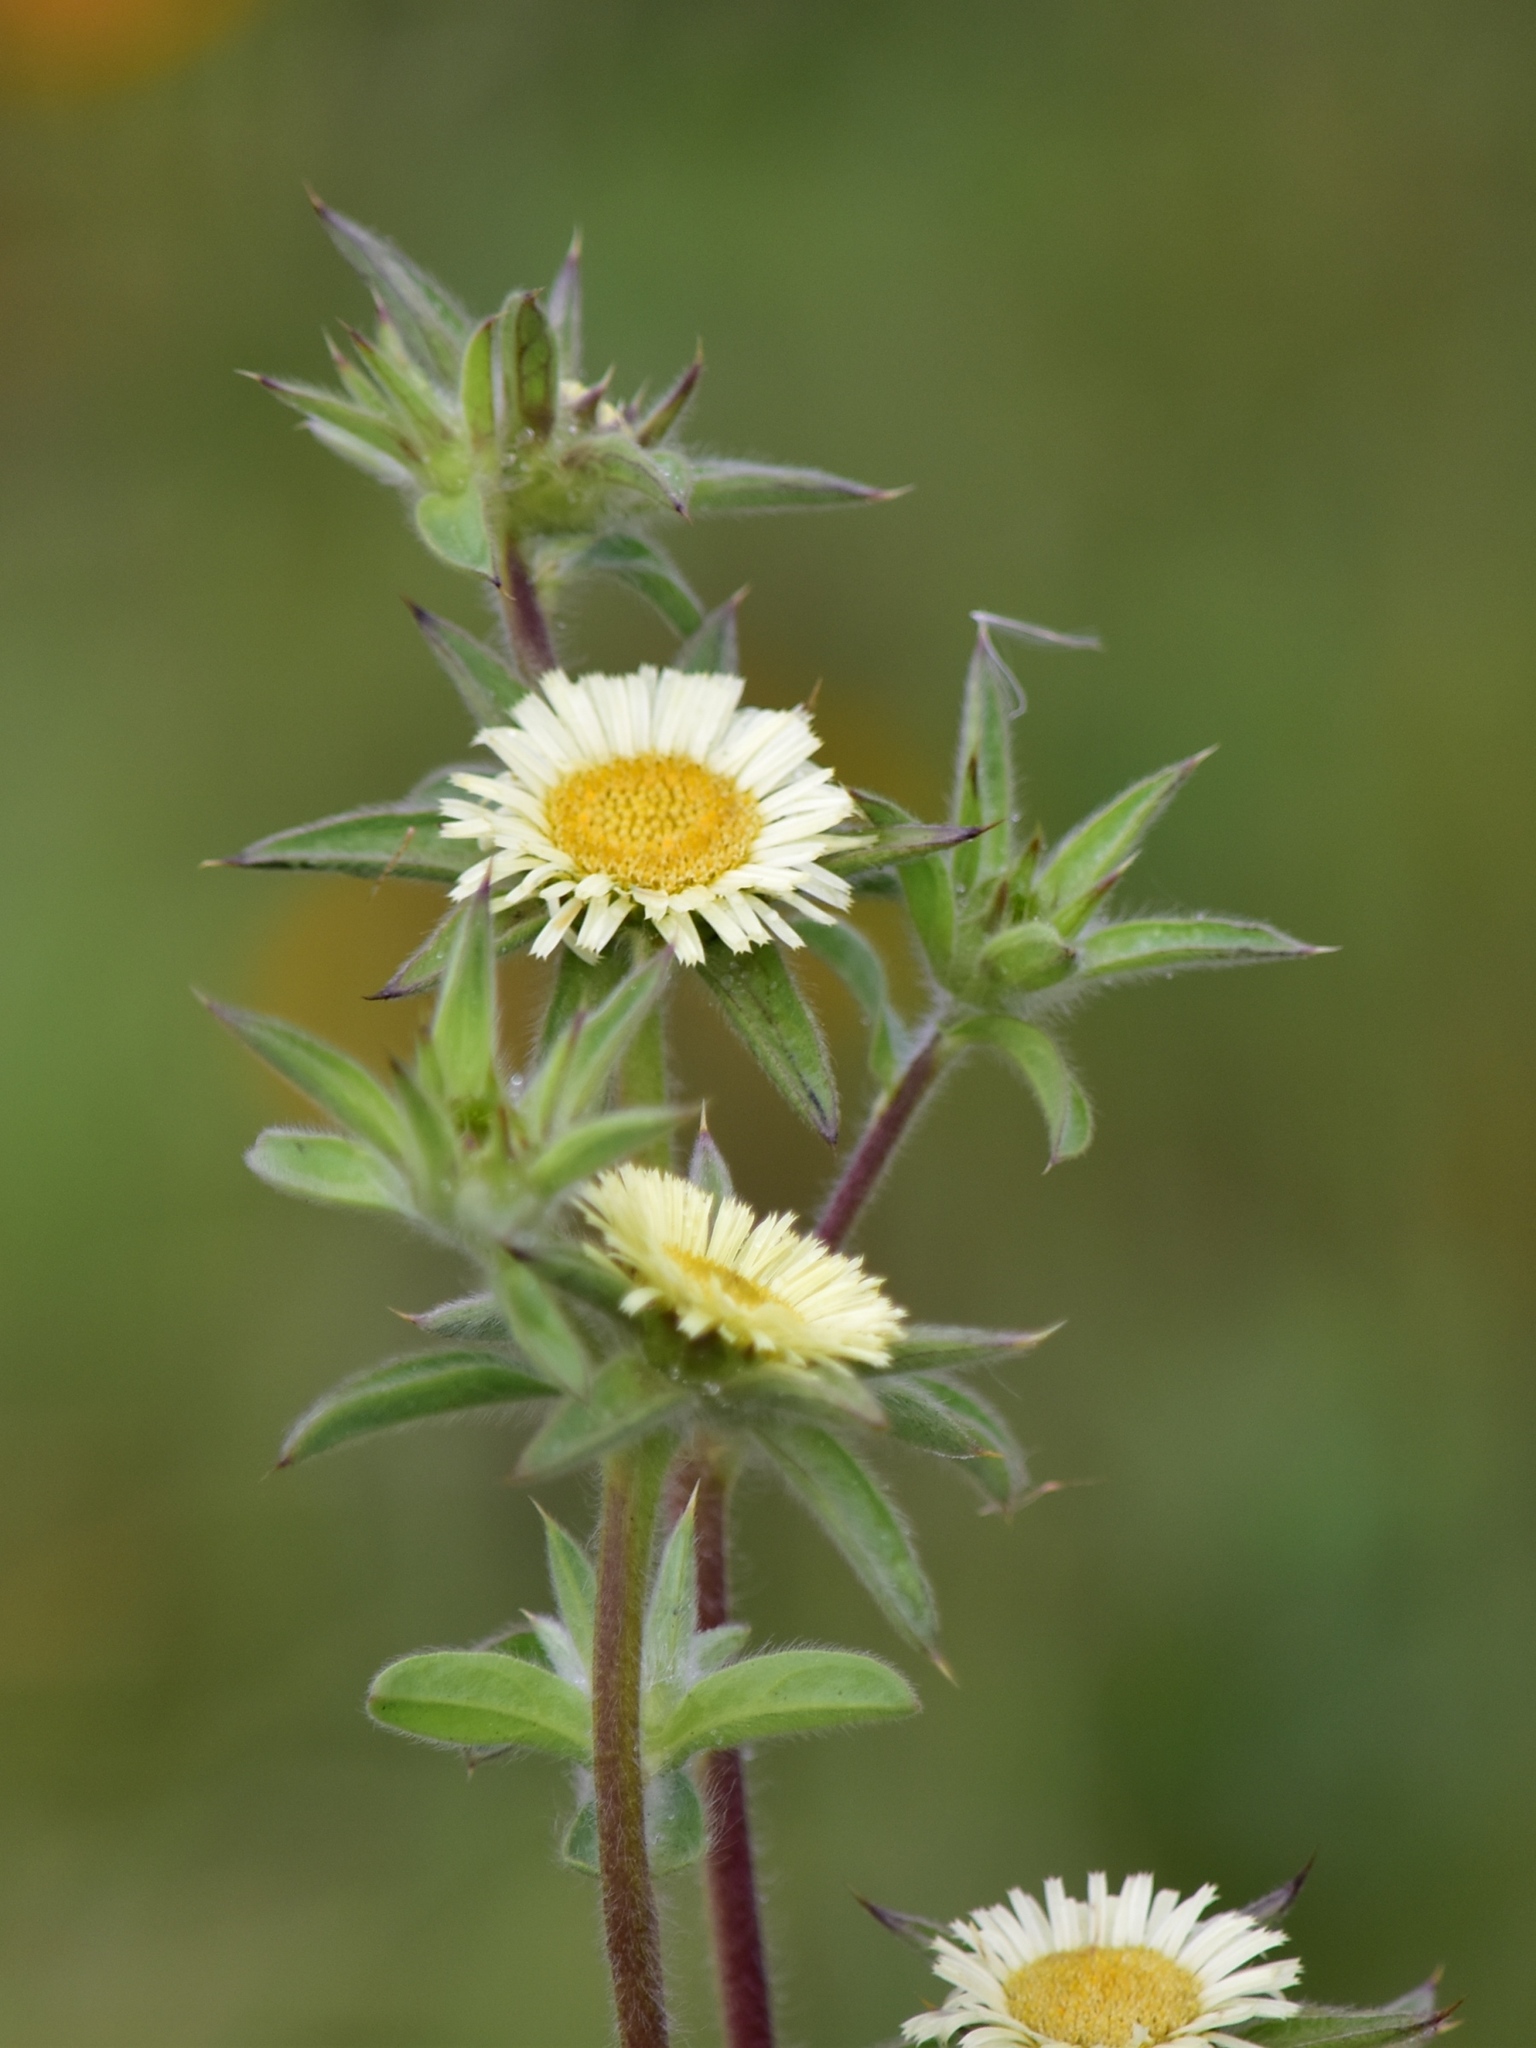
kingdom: Plantae
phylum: Tracheophyta
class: Magnoliopsida
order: Asterales
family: Asteraceae
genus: Pallenis
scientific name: Pallenis spinosa
